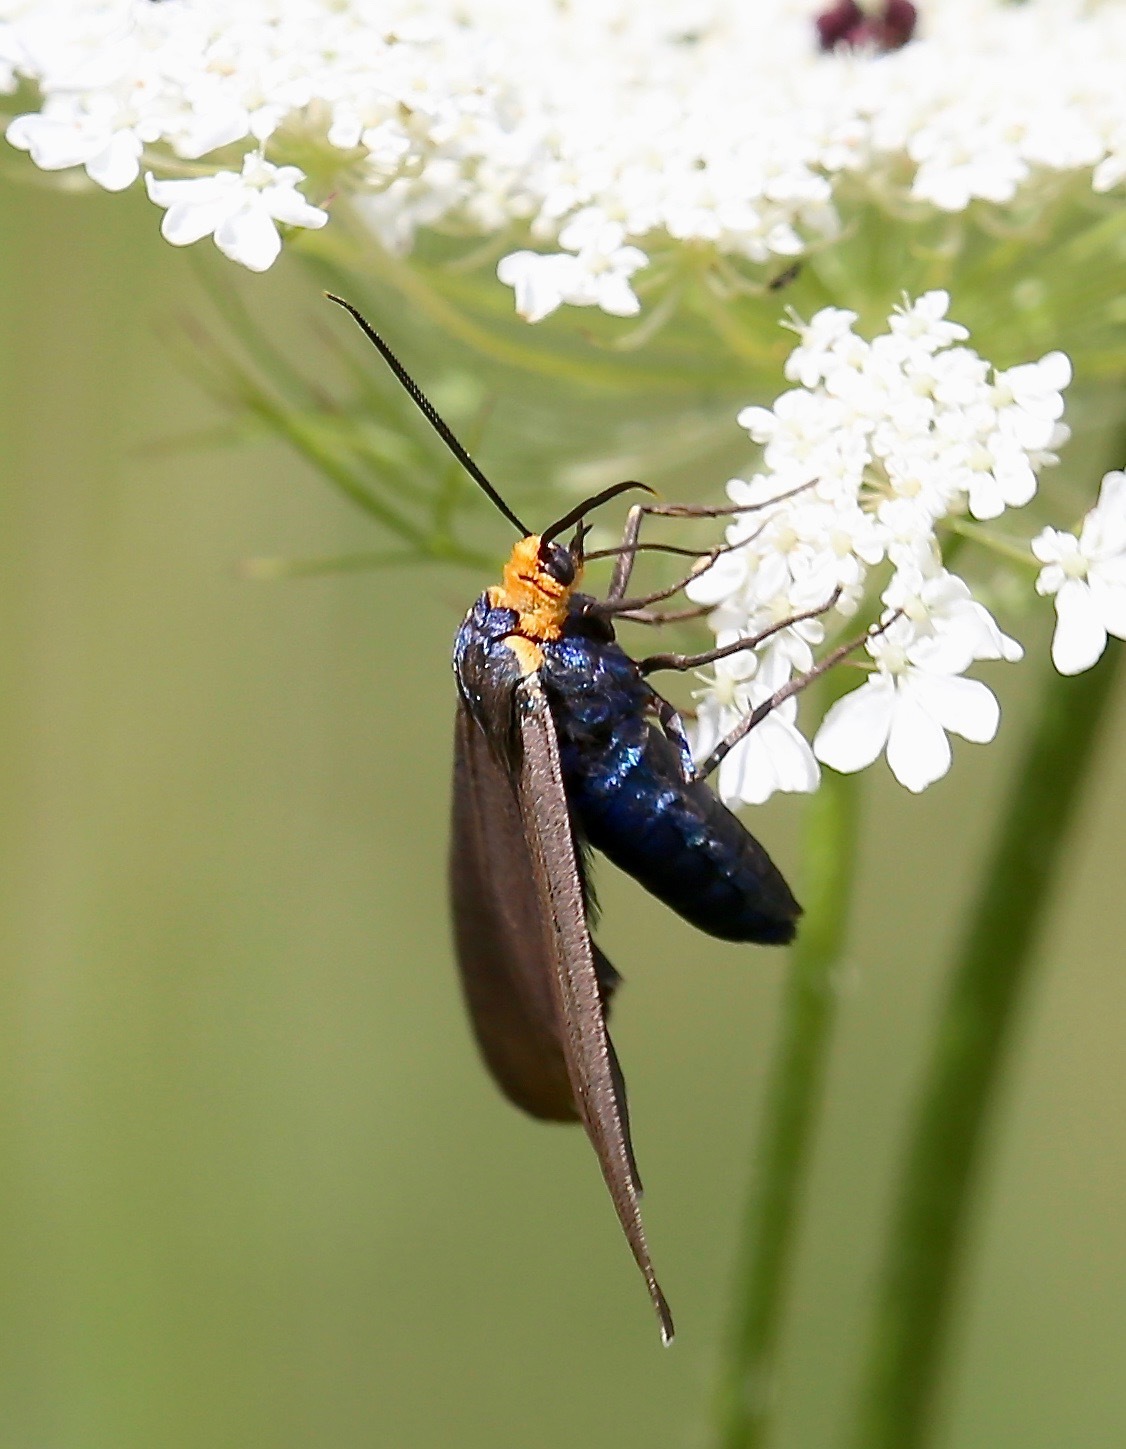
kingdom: Animalia
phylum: Arthropoda
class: Insecta
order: Lepidoptera
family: Erebidae
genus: Ctenucha
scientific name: Ctenucha virginica
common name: Virginia ctenucha moth
